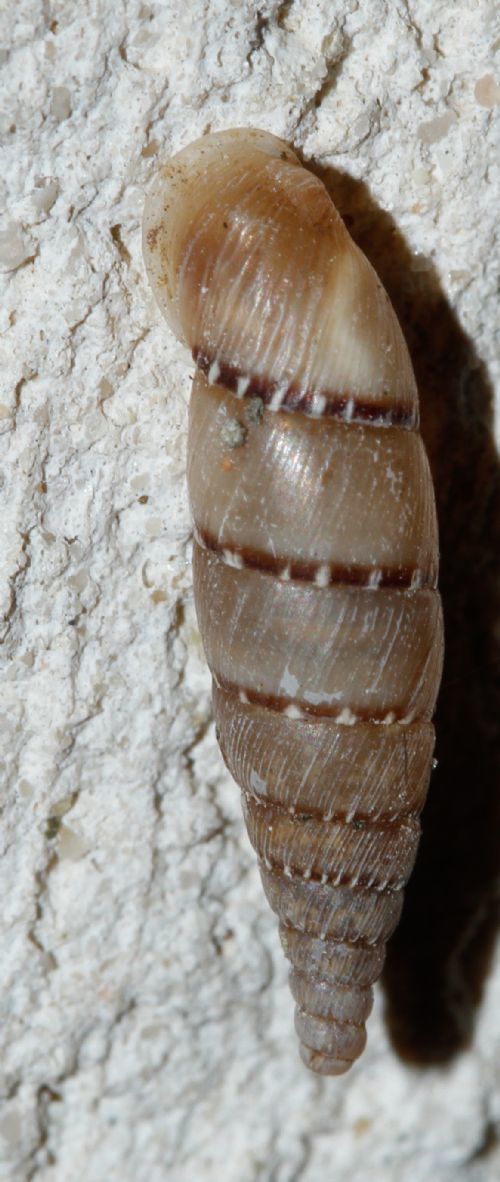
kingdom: Animalia
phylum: Mollusca
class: Gastropoda
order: Stylommatophora
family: Clausiliidae
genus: Papillifera
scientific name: Papillifera papillaris
